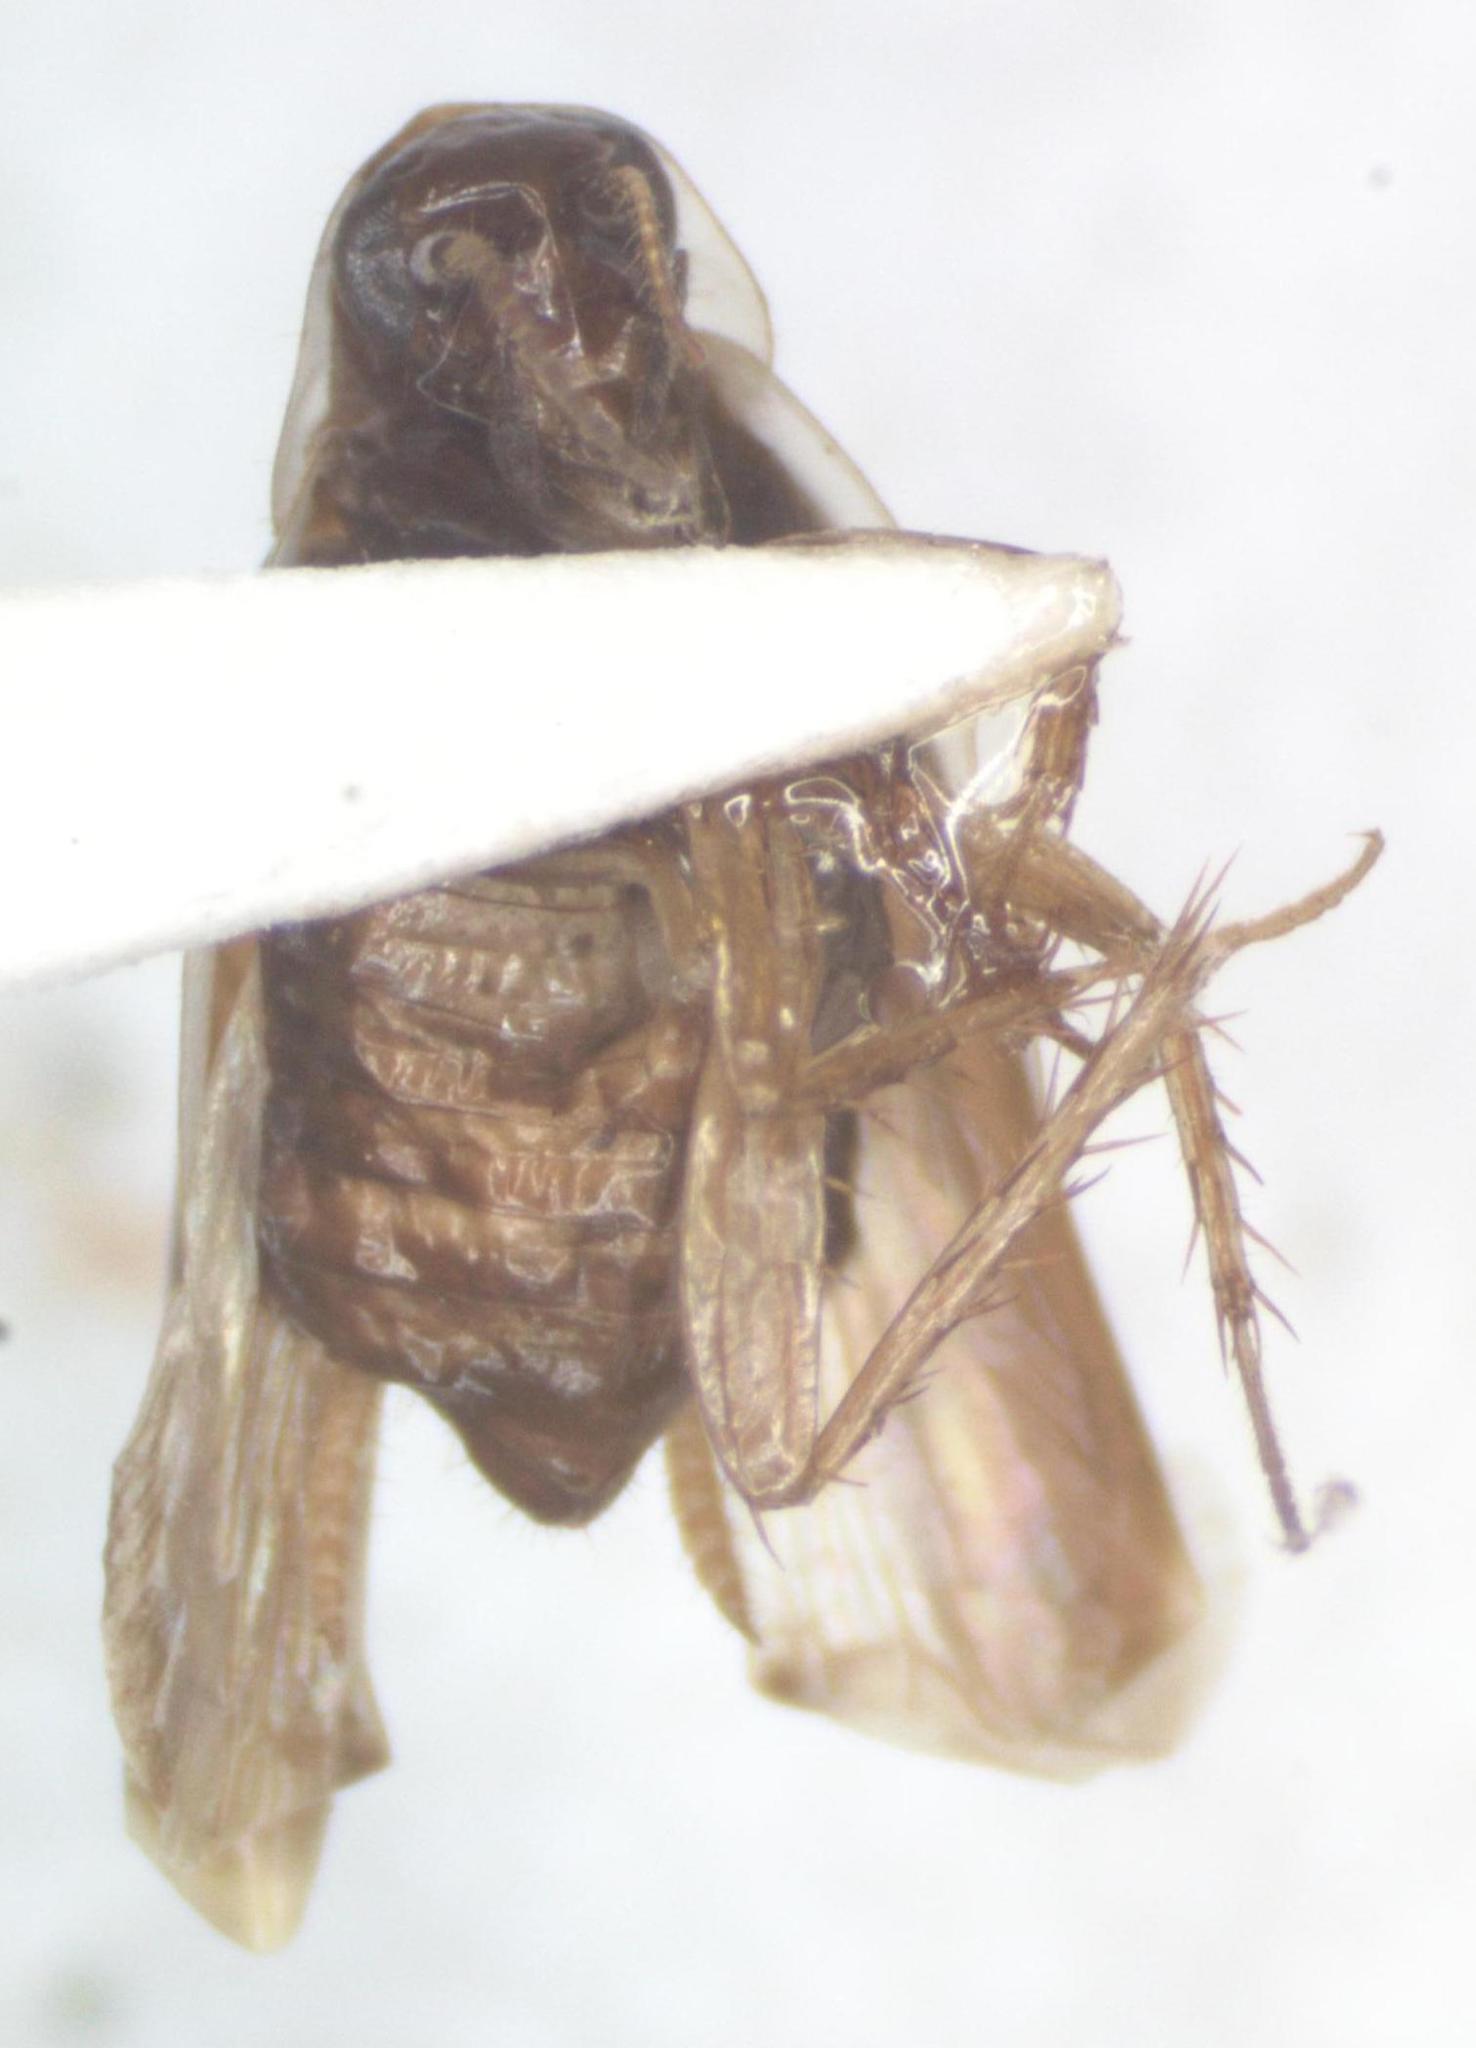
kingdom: Animalia
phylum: Arthropoda
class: Insecta
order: Blattodea
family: Anaplectidae
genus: Anaplecta
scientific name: Anaplecta fallax
